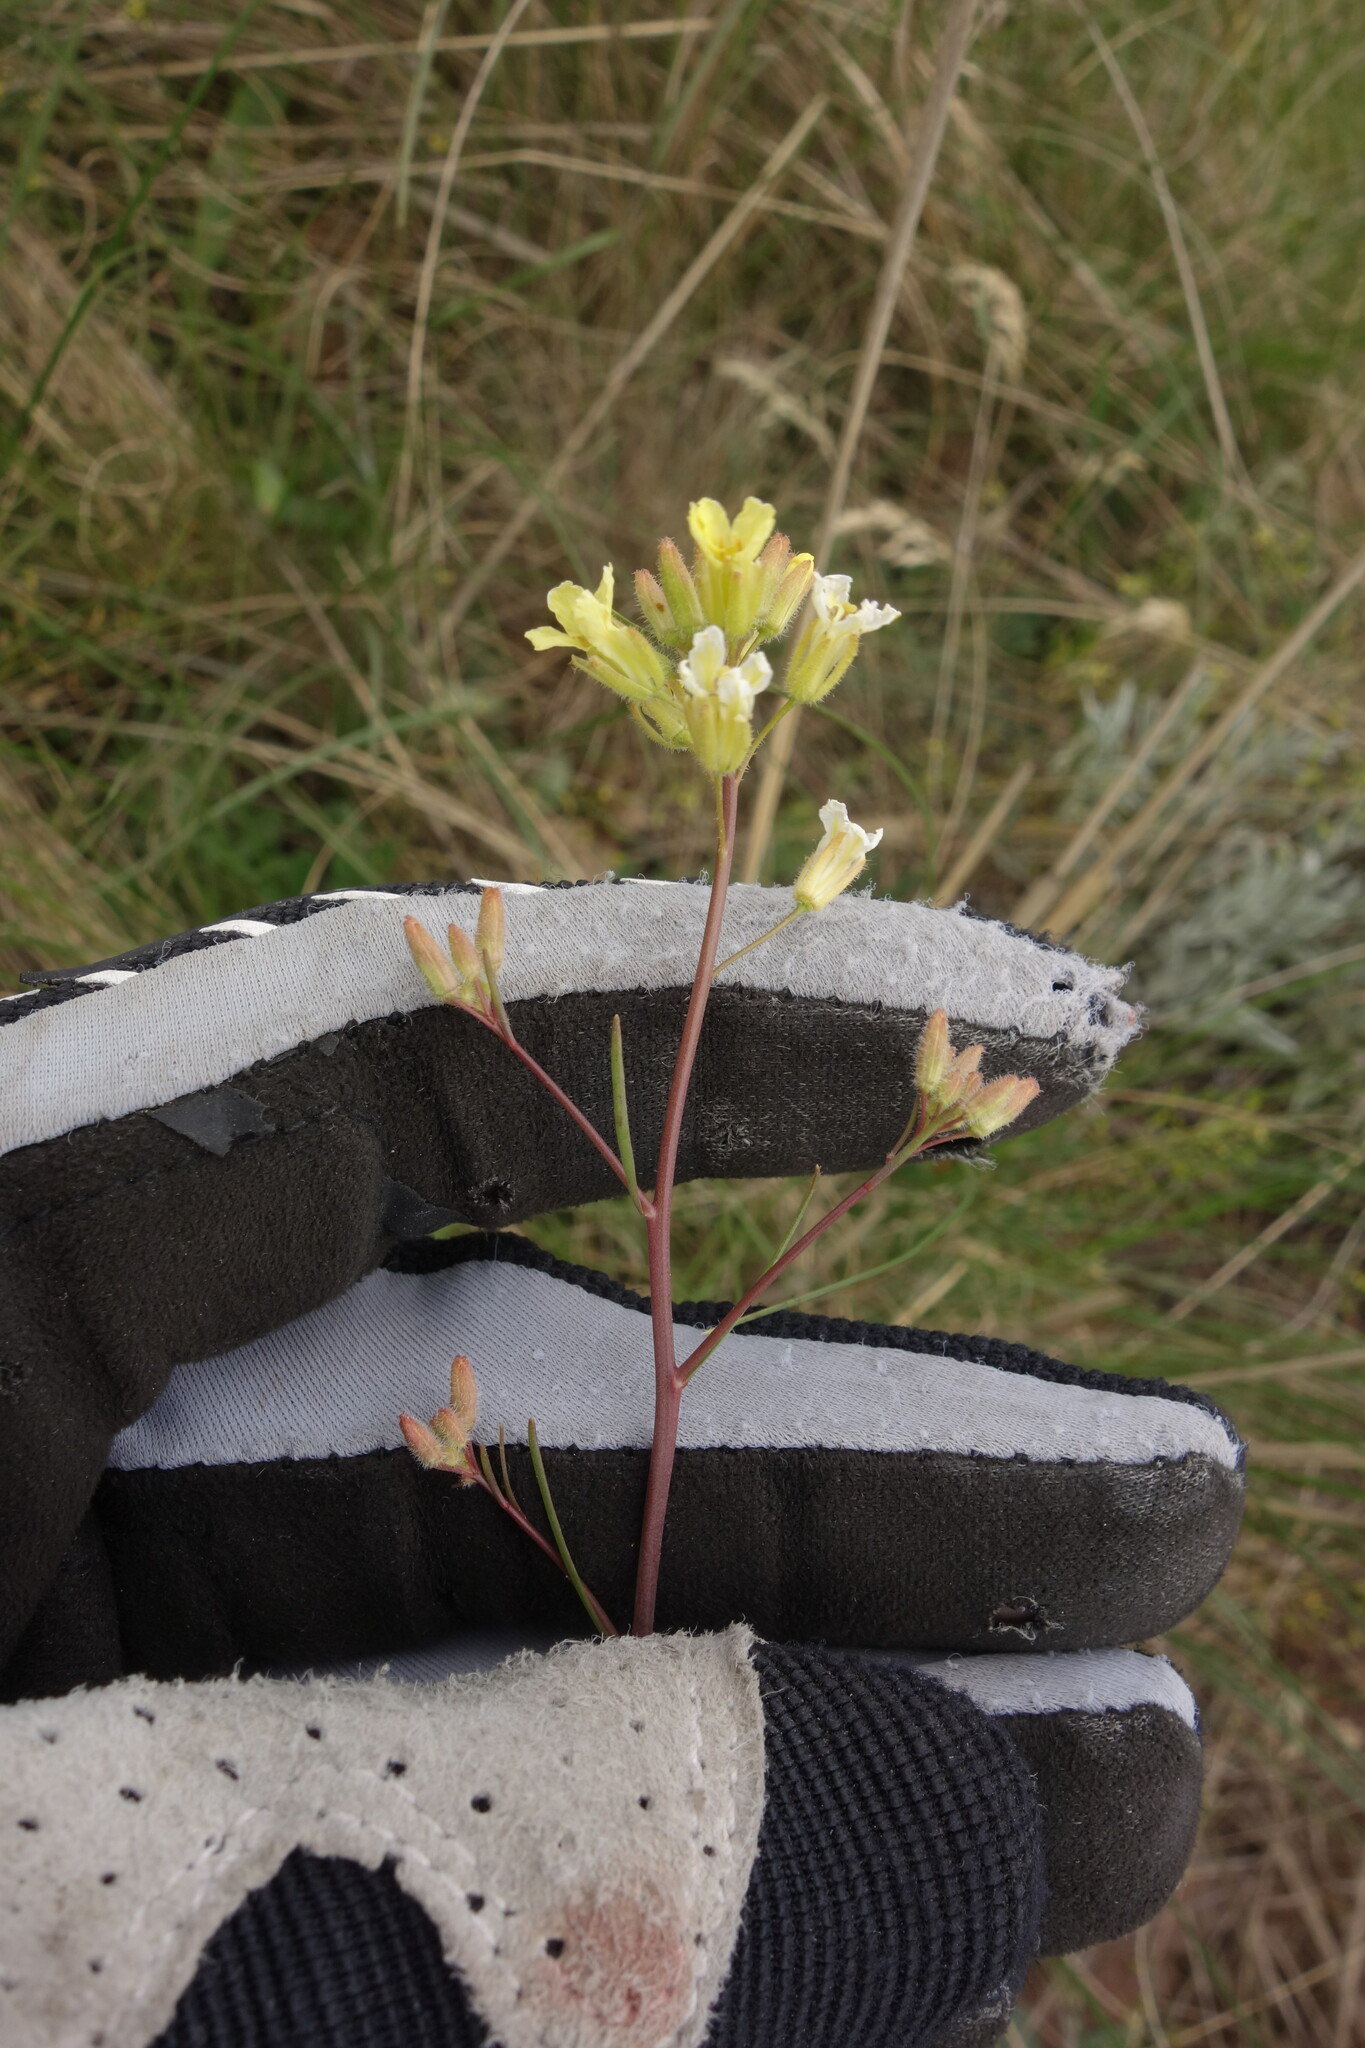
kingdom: Plantae
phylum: Tracheophyta
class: Magnoliopsida
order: Brassicales
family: Brassicaceae
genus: Sisymbrium
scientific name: Sisymbrium polymorphum
